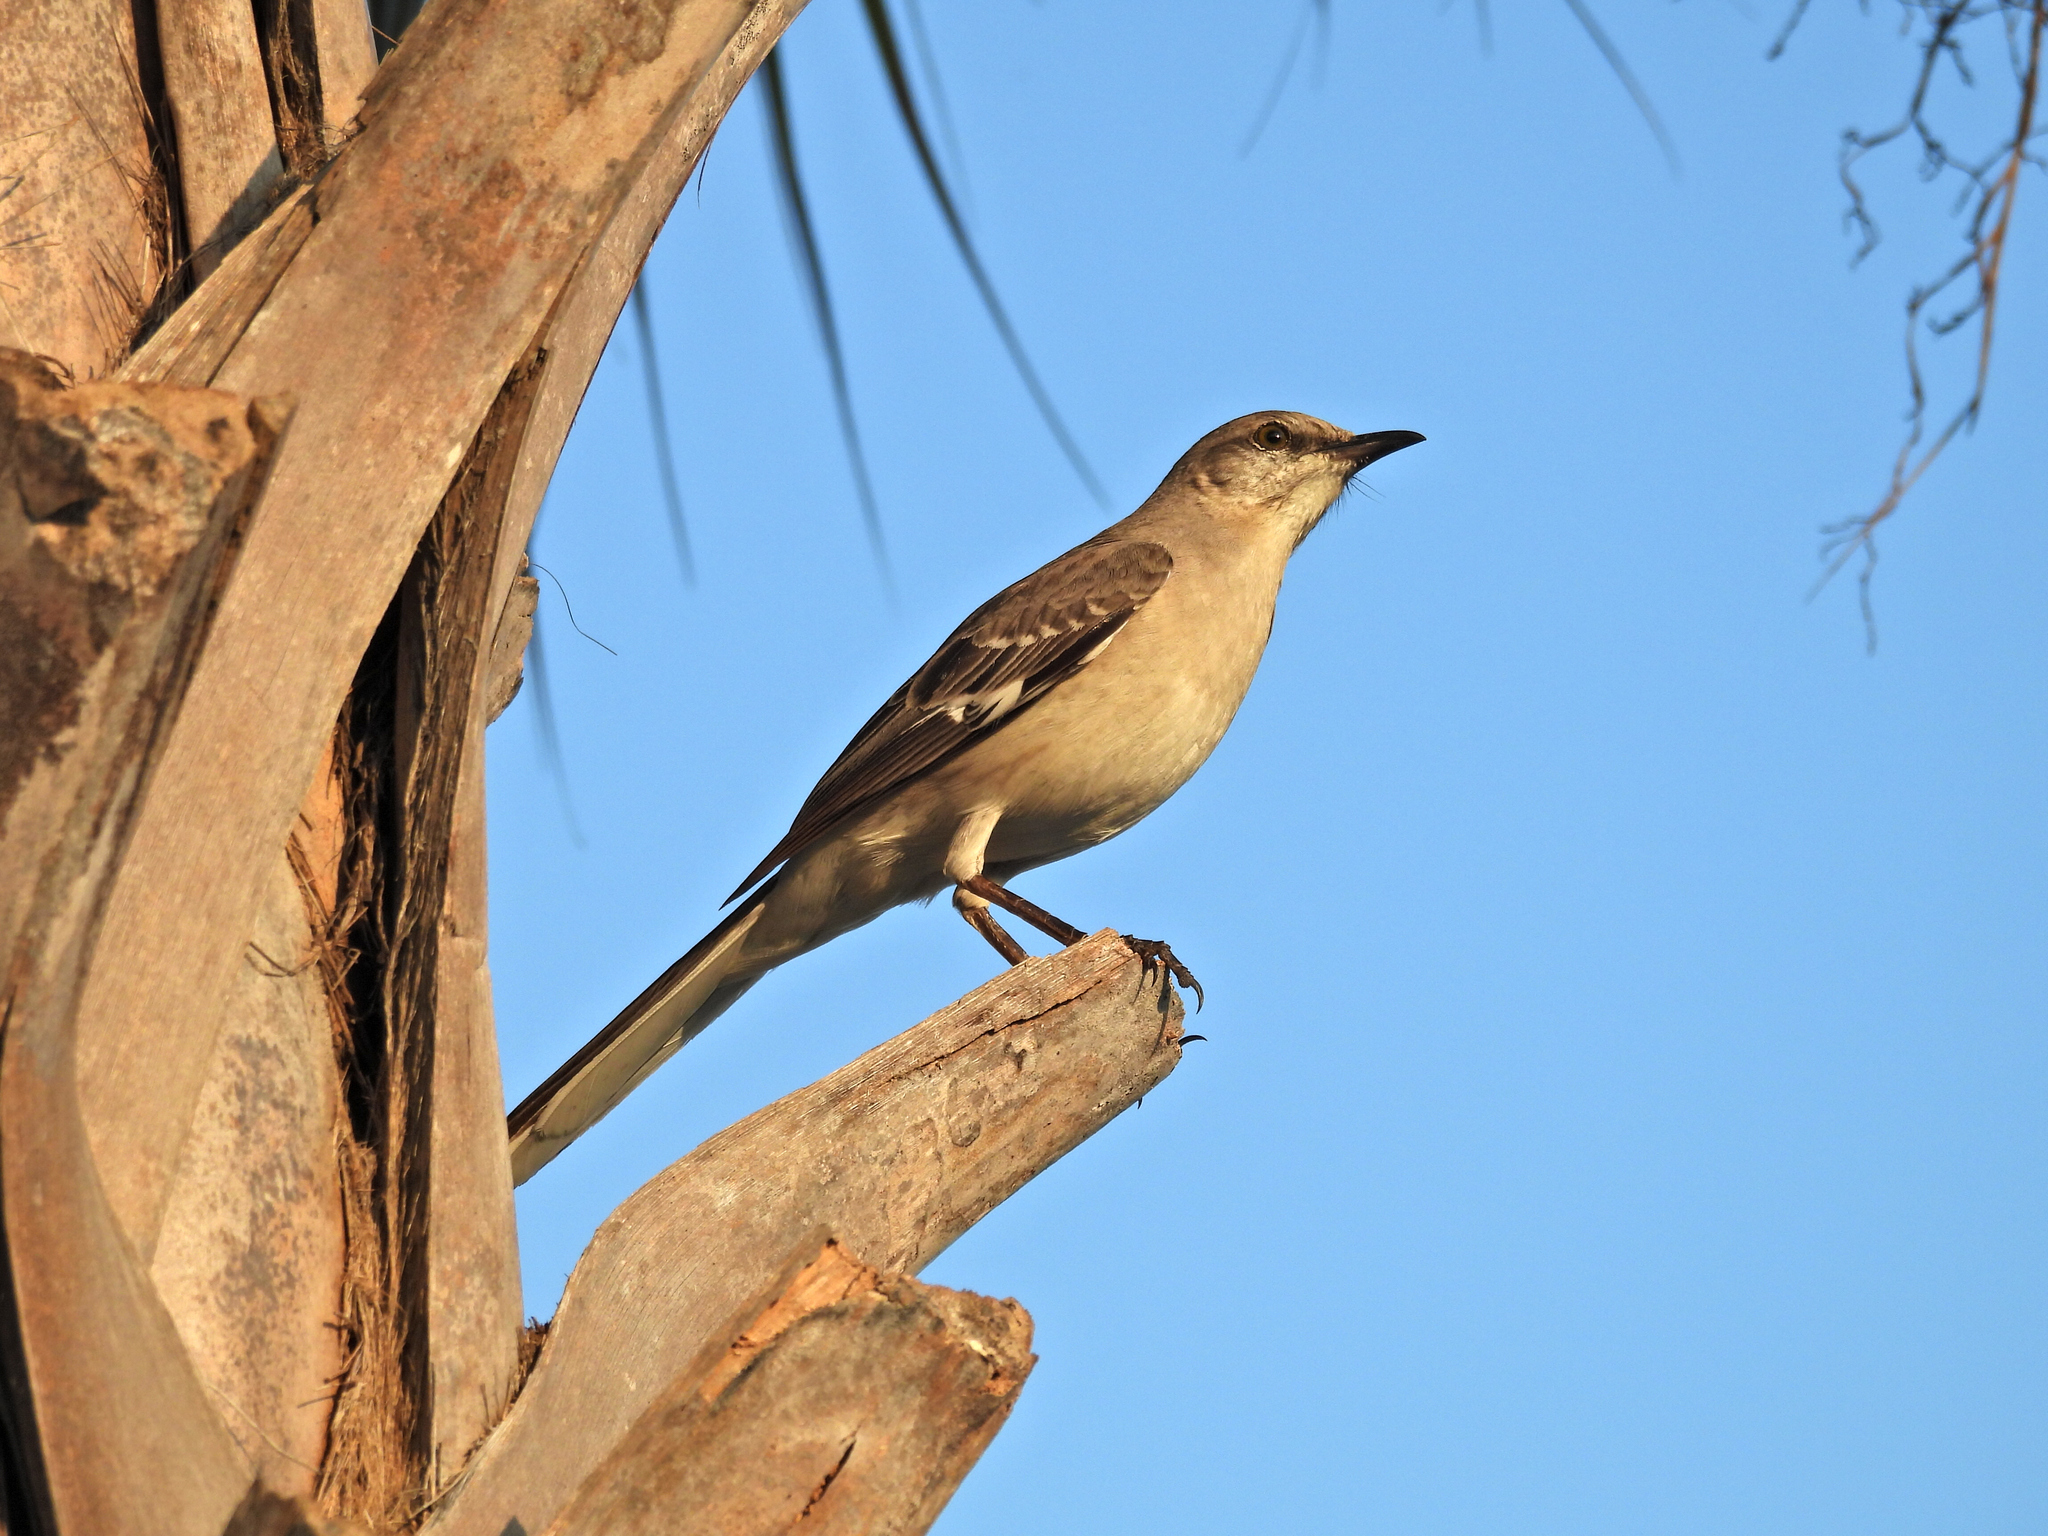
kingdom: Animalia
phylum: Chordata
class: Aves
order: Passeriformes
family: Mimidae
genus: Mimus
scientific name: Mimus polyglottos
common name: Northern mockingbird
